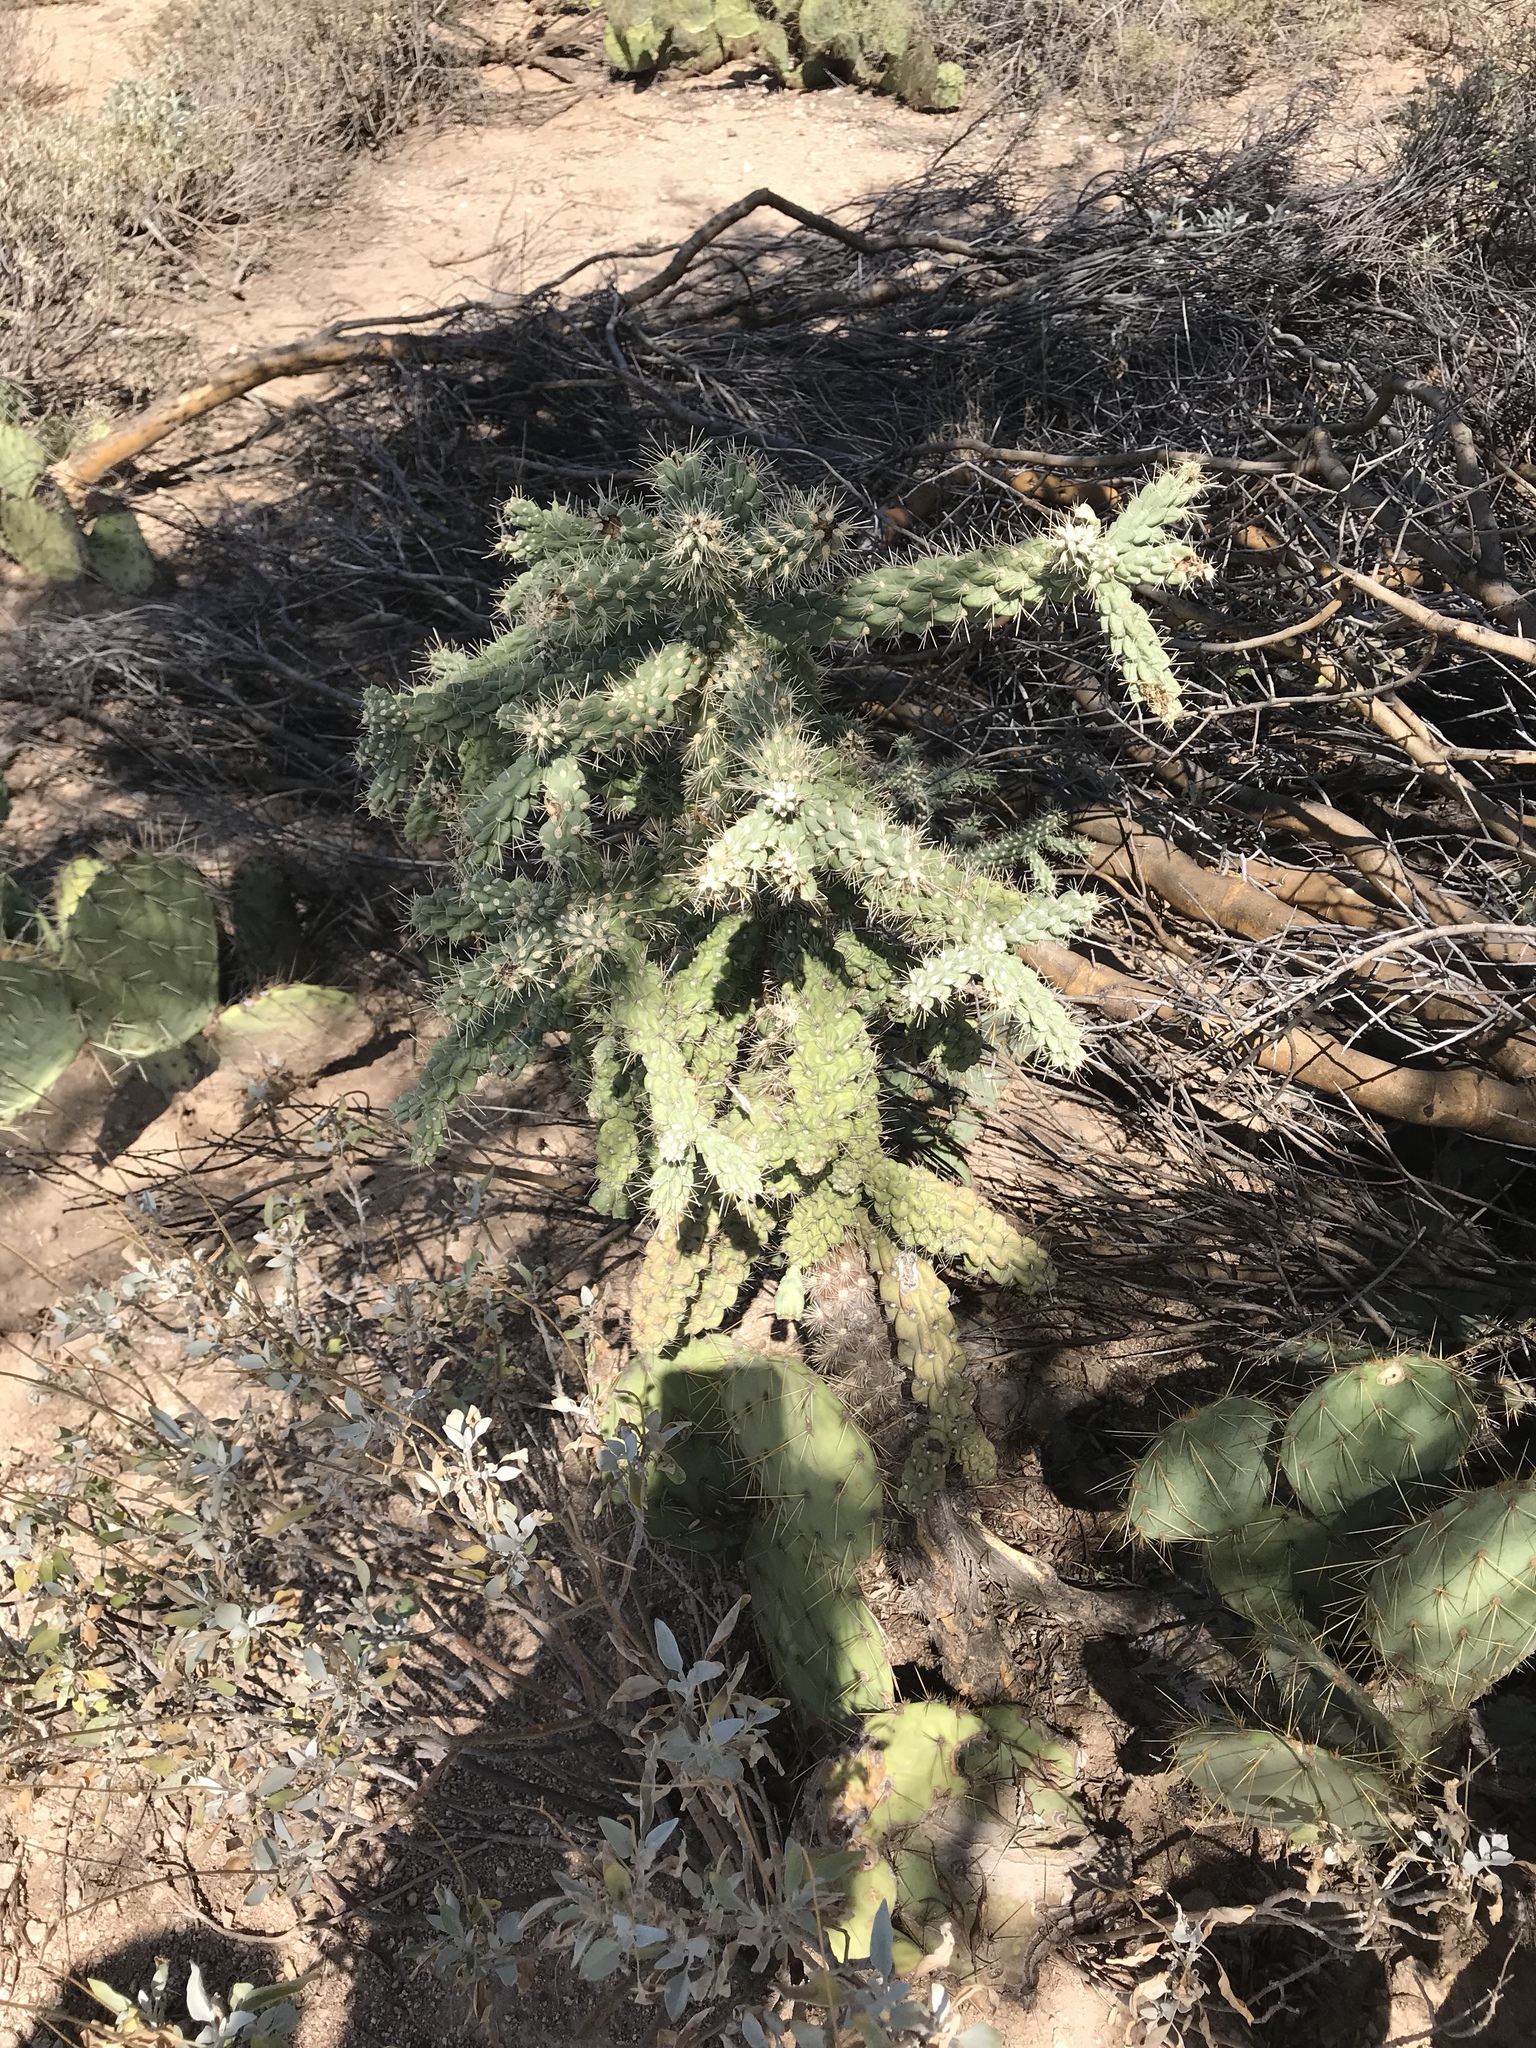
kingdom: Plantae
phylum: Tracheophyta
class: Magnoliopsida
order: Caryophyllales
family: Cactaceae
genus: Cylindropuntia
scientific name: Cylindropuntia fulgida
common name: Jumping cholla
